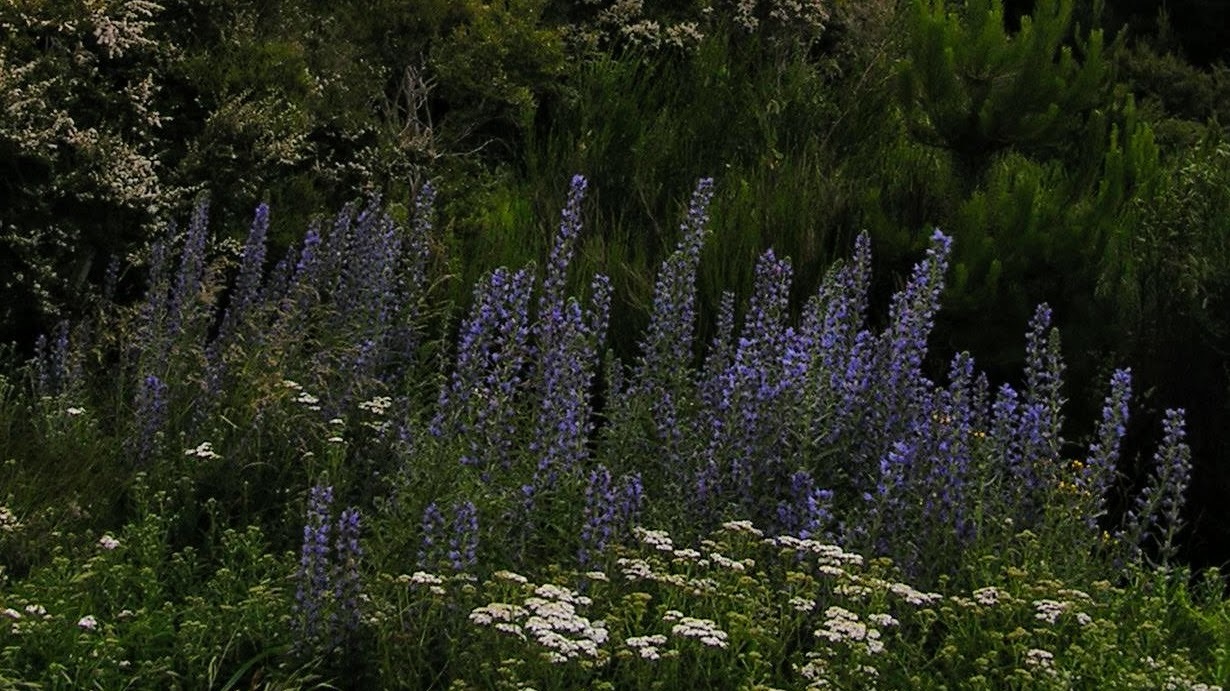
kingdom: Plantae
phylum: Tracheophyta
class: Magnoliopsida
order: Boraginales
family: Boraginaceae
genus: Echium
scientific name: Echium vulgare
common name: Common viper's bugloss
